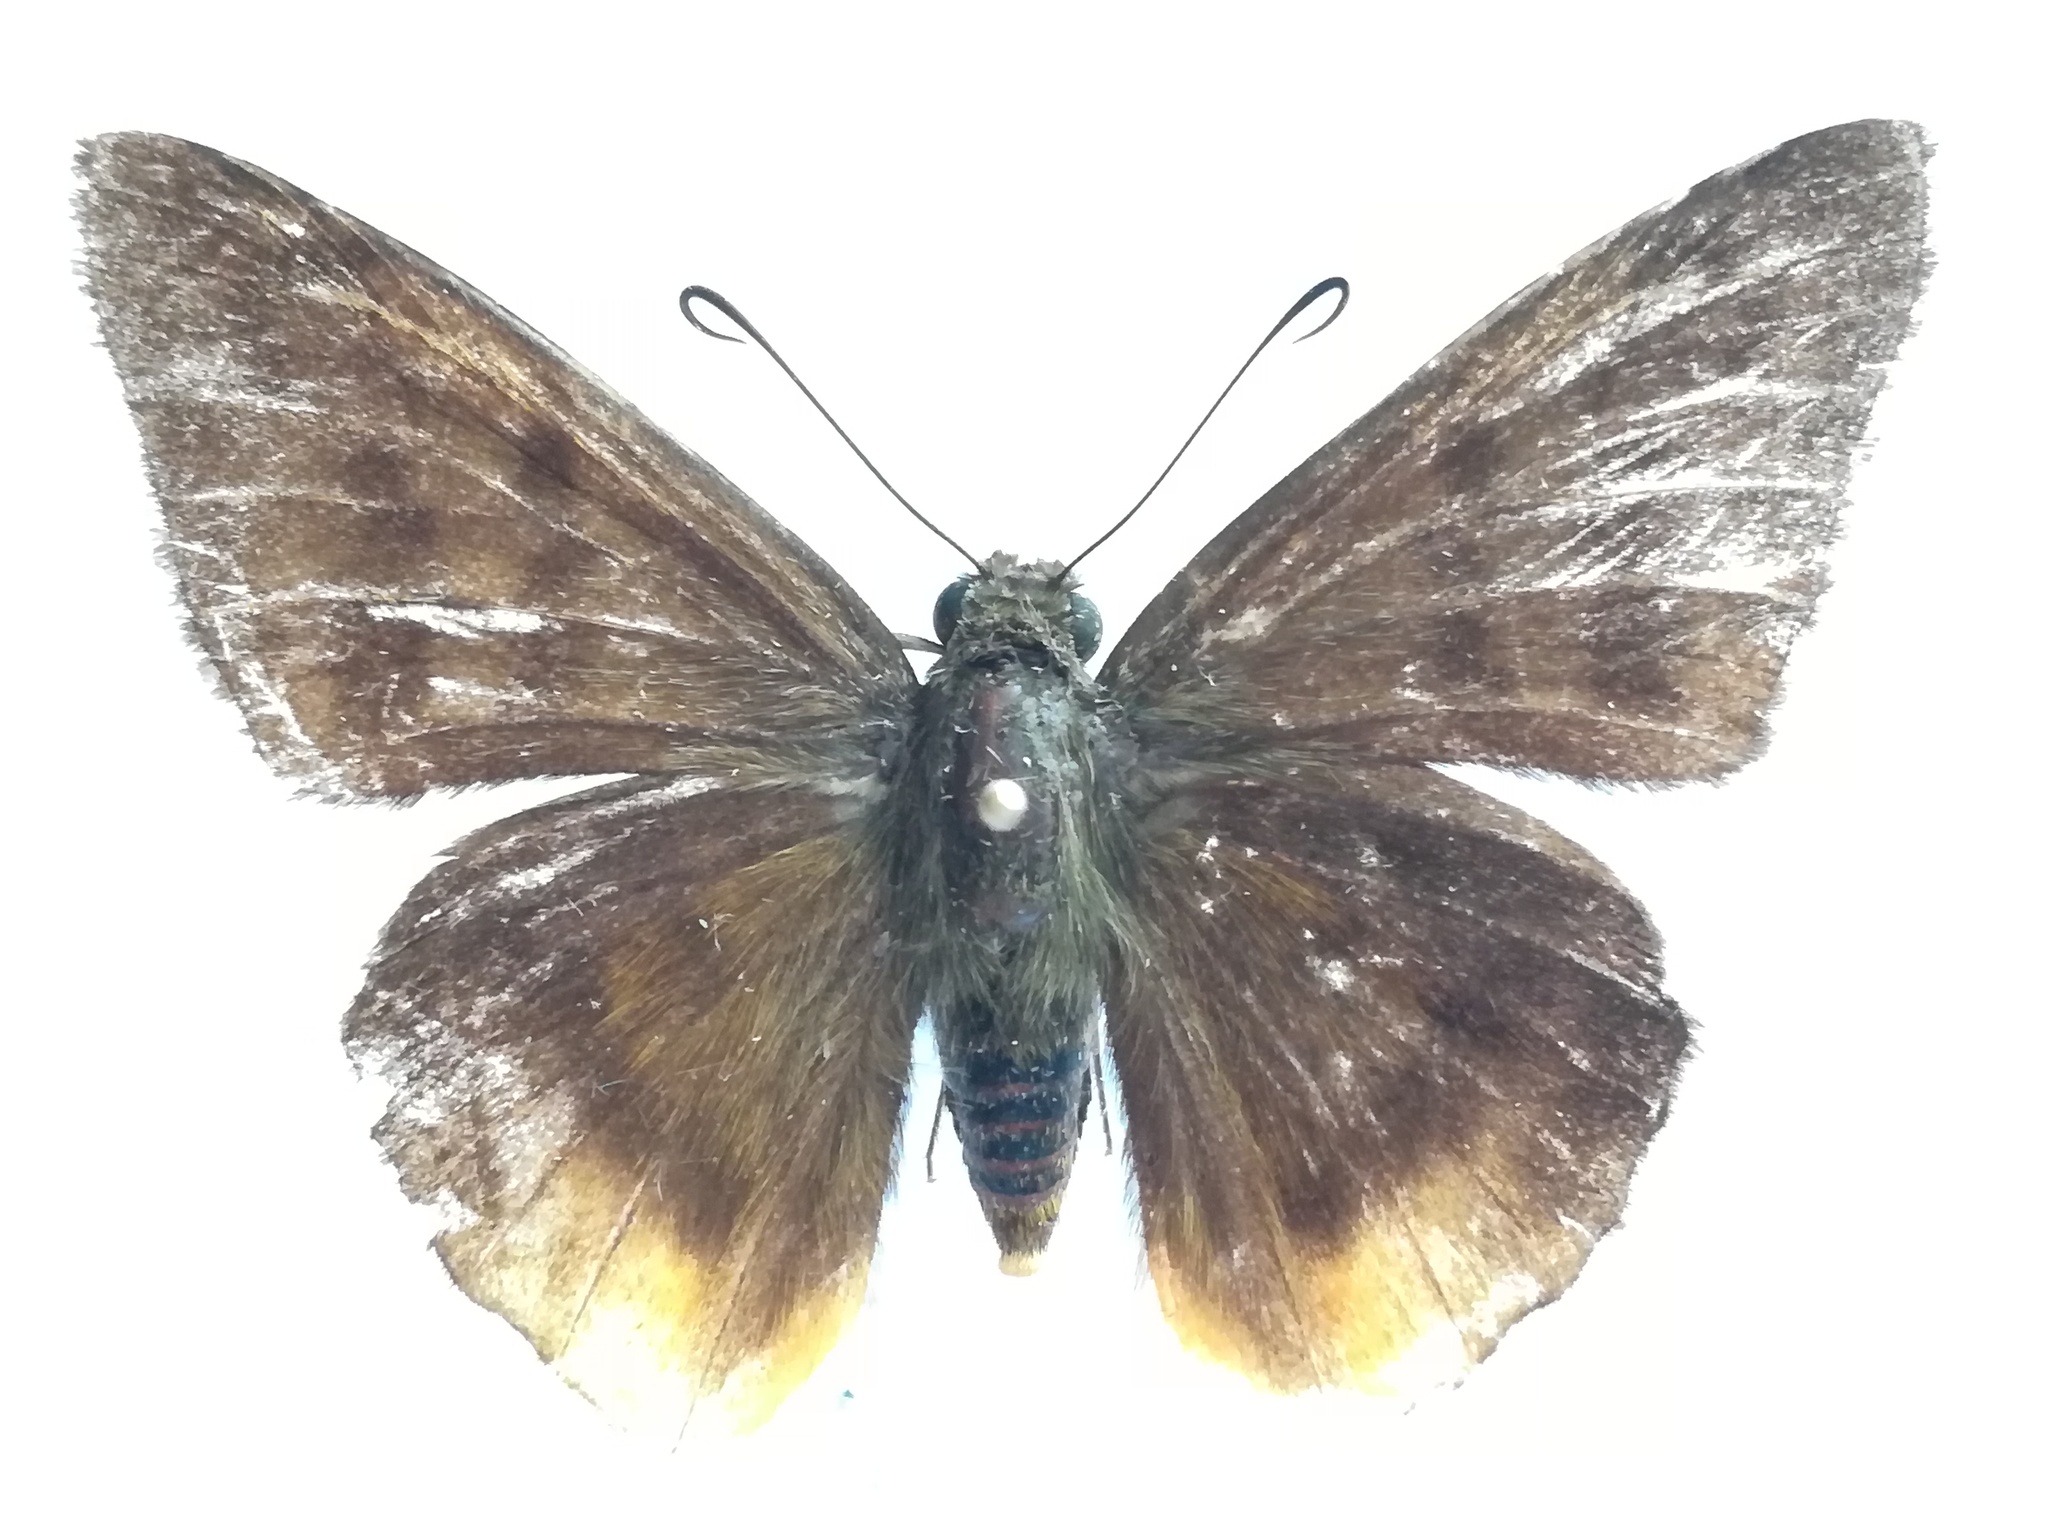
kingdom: Animalia
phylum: Arthropoda
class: Insecta
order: Lepidoptera
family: Hesperiidae
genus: Astraptes
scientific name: Astraptes anaphus
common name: Yellow-tipped flasher
